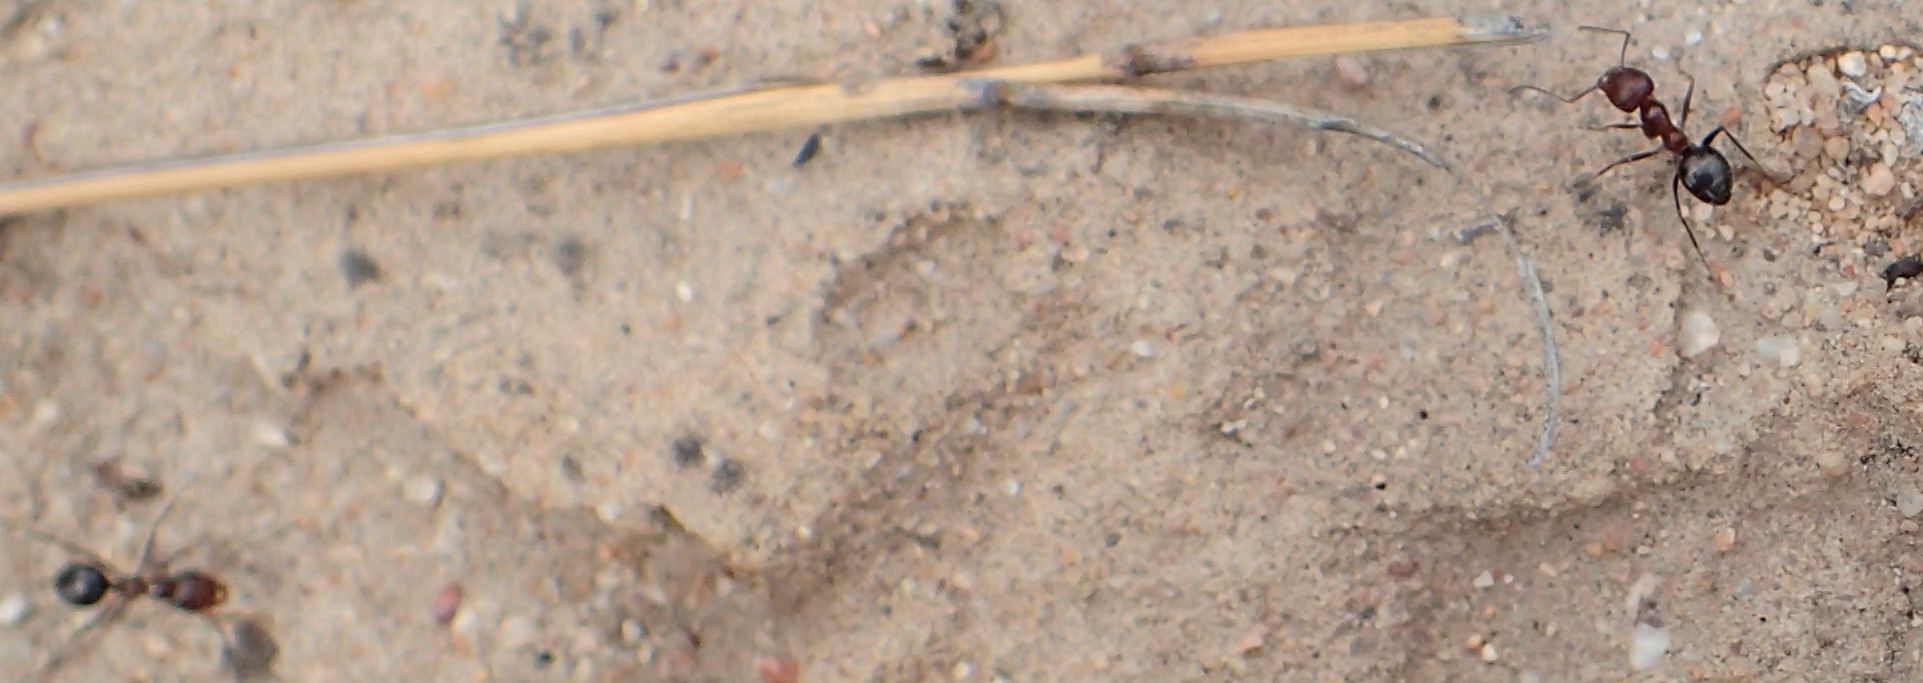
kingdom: Animalia
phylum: Arthropoda
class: Insecta
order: Hymenoptera
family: Formicidae
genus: Anoplolepis
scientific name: Anoplolepis steingroeveri
